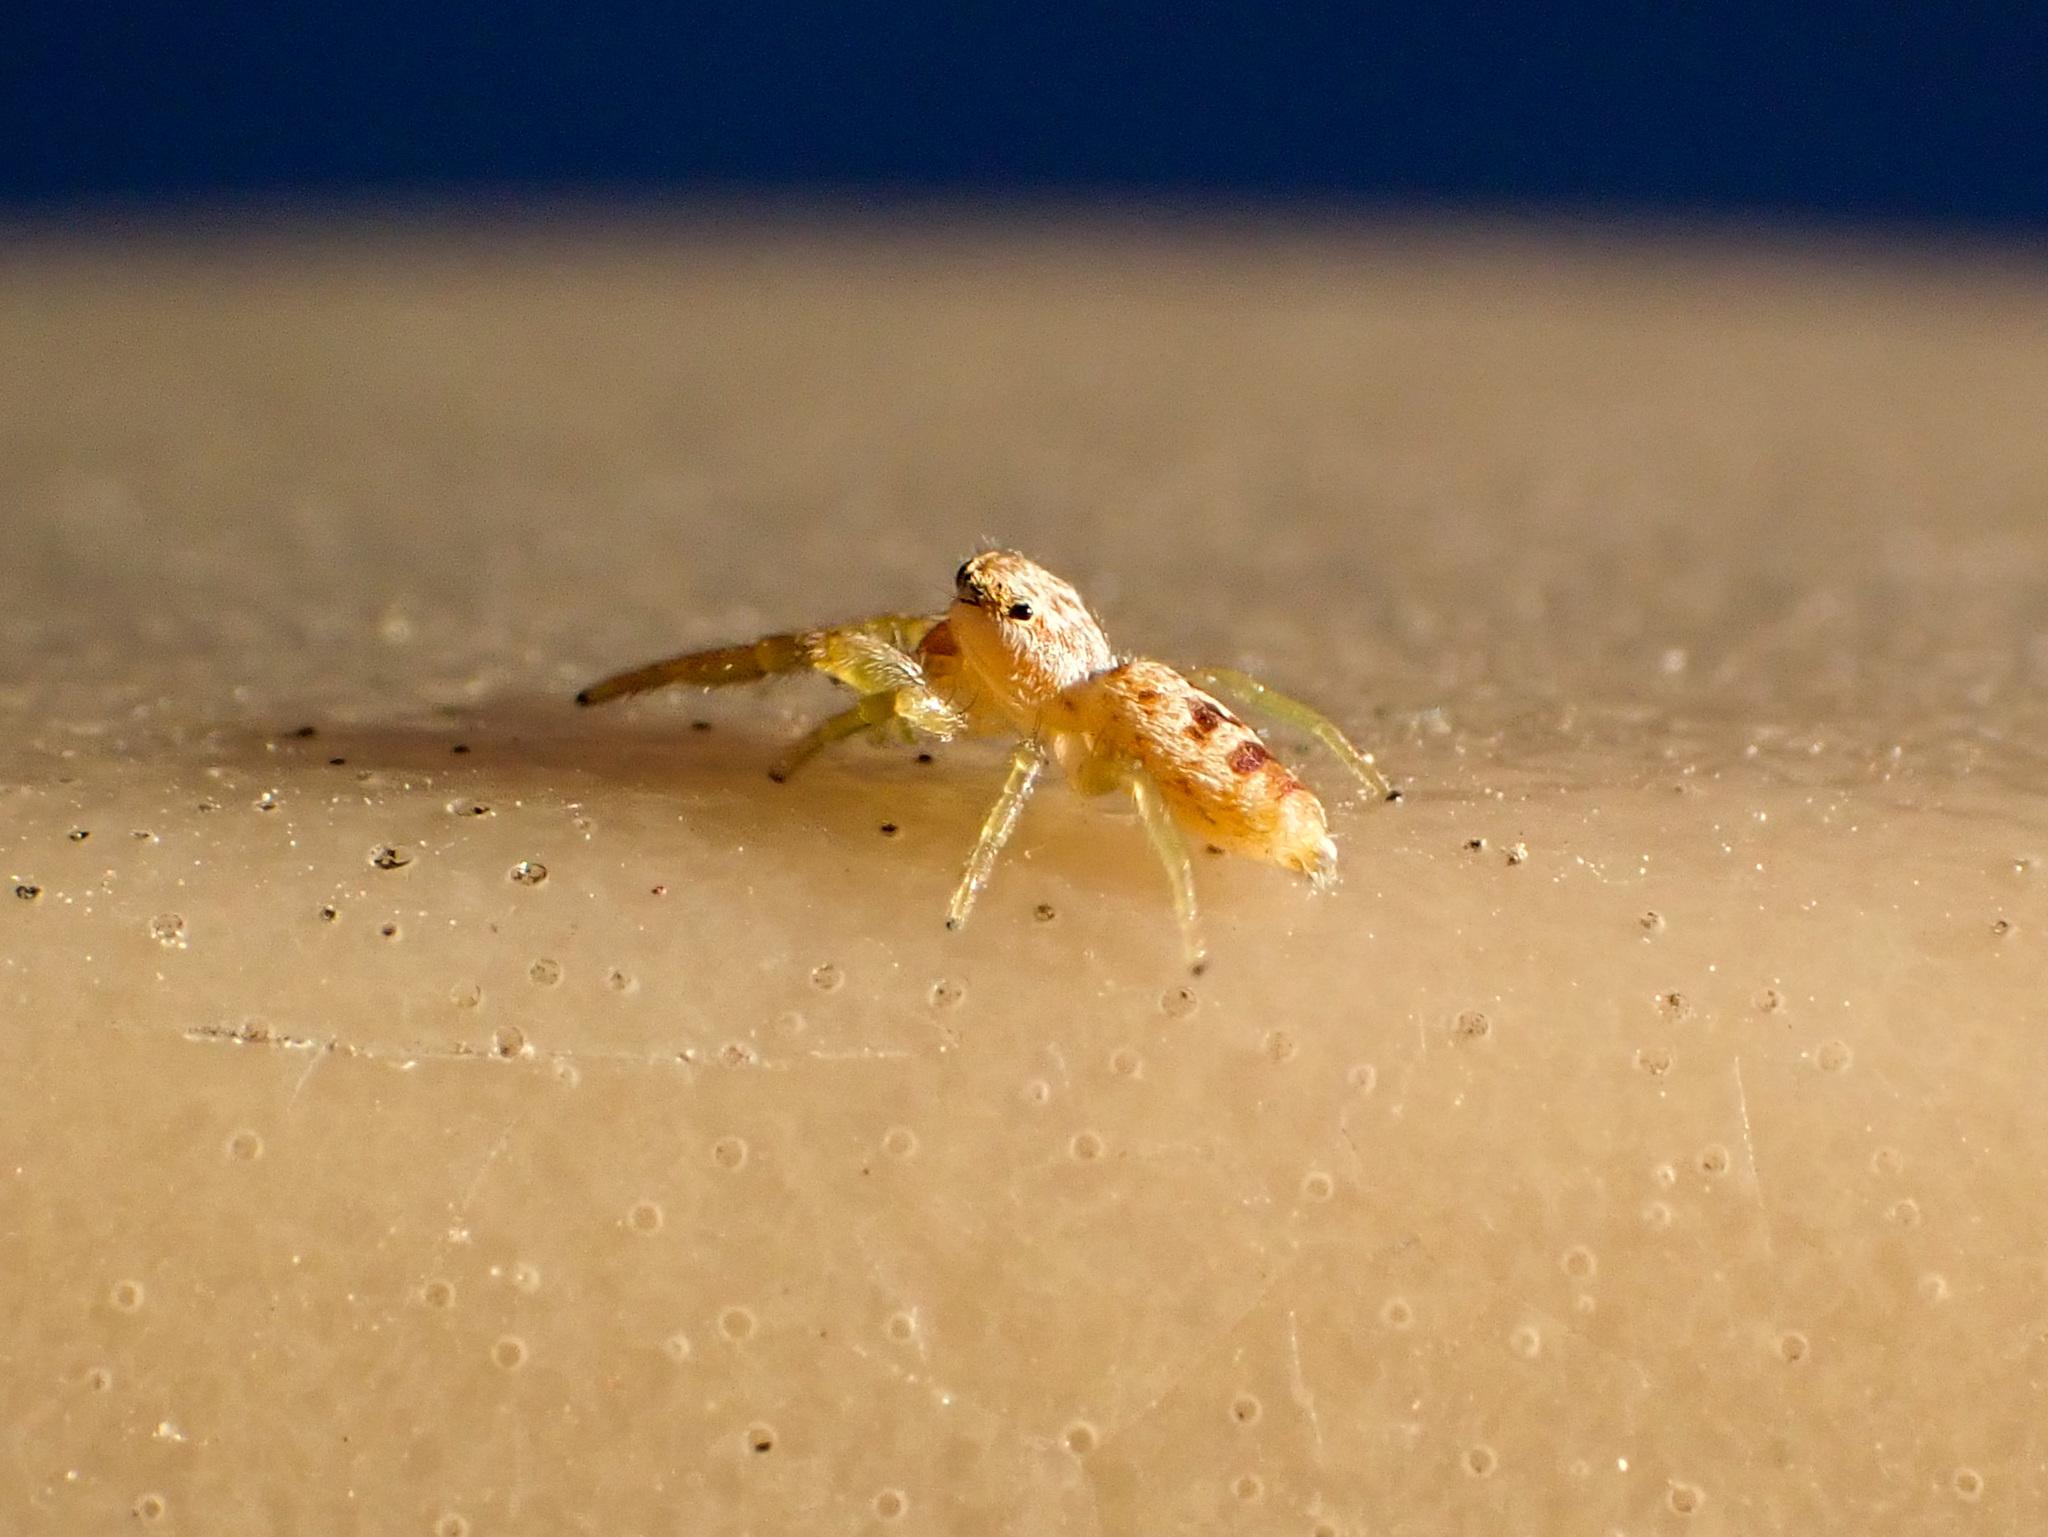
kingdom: Animalia
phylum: Arthropoda
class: Arachnida
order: Araneae
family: Salticidae
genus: Hentzia
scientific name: Hentzia
